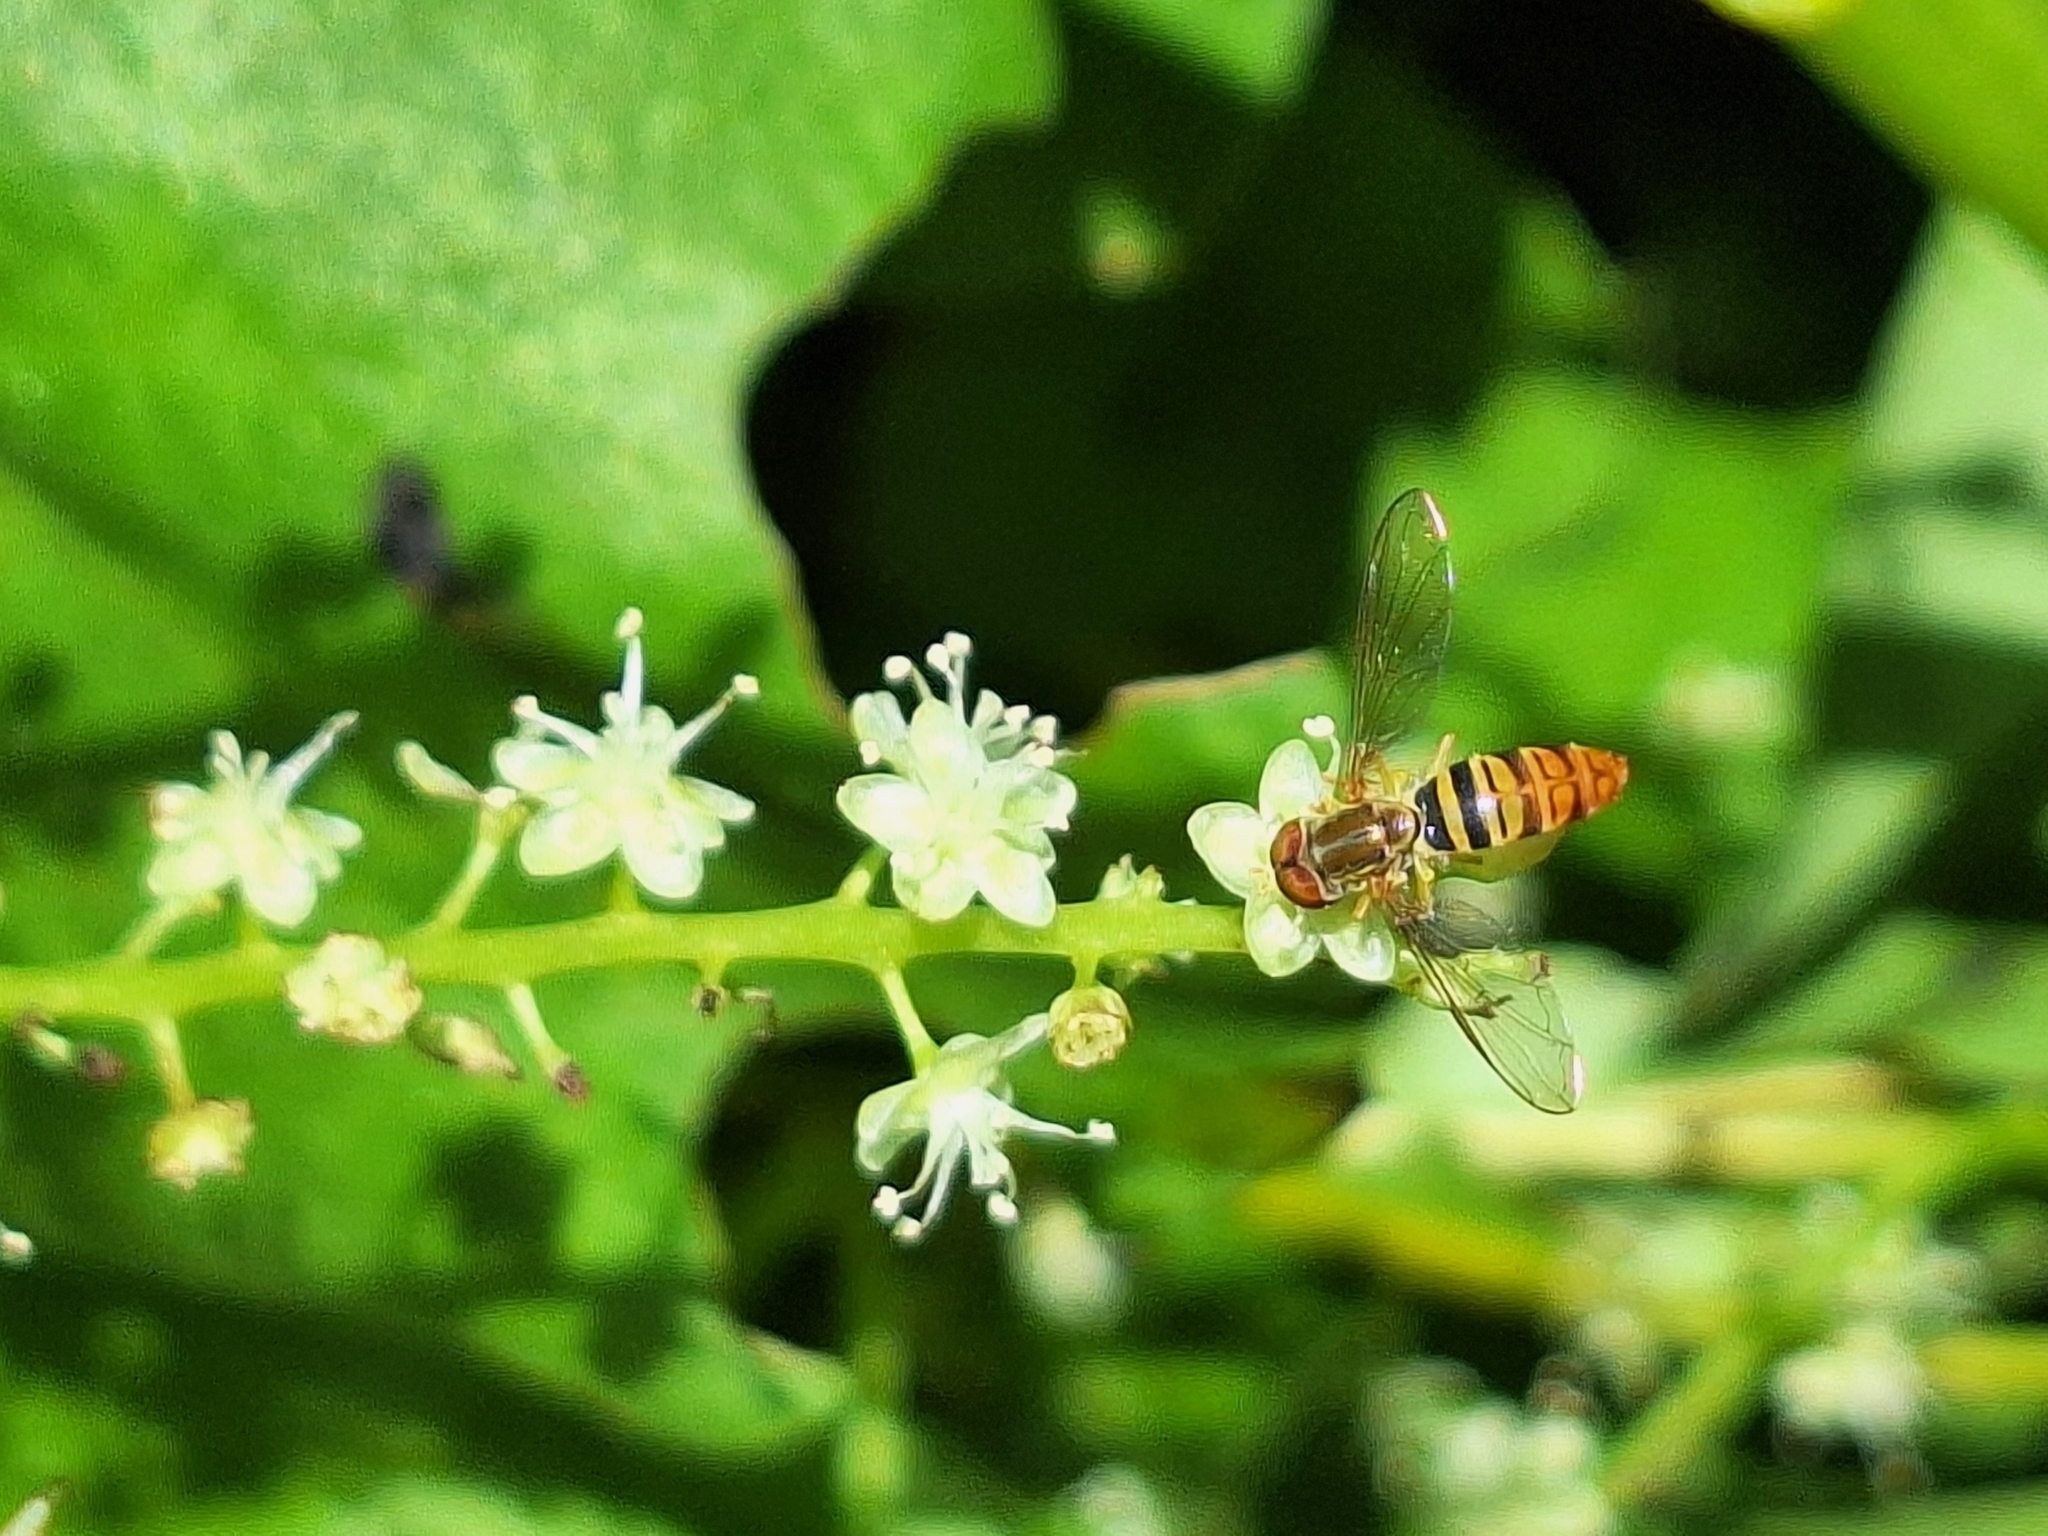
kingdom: Animalia
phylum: Arthropoda
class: Insecta
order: Diptera
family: Syrphidae
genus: Toxomerus
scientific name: Toxomerus politus
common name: Maize calligrapher
